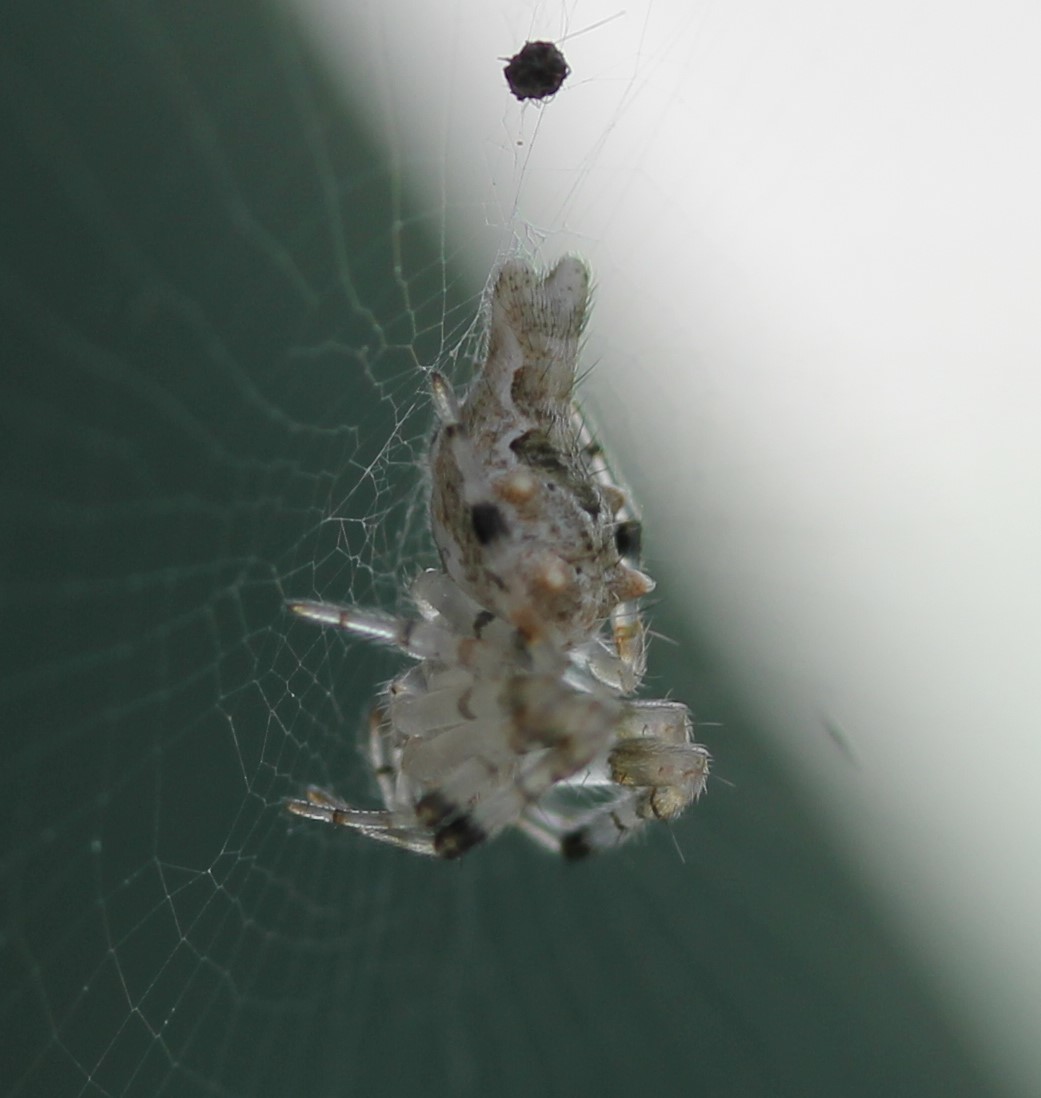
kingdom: Animalia
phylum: Arthropoda
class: Arachnida
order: Araneae
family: Araneidae
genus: Allocyclosa
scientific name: Allocyclosa bifurca
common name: Orb weavers
